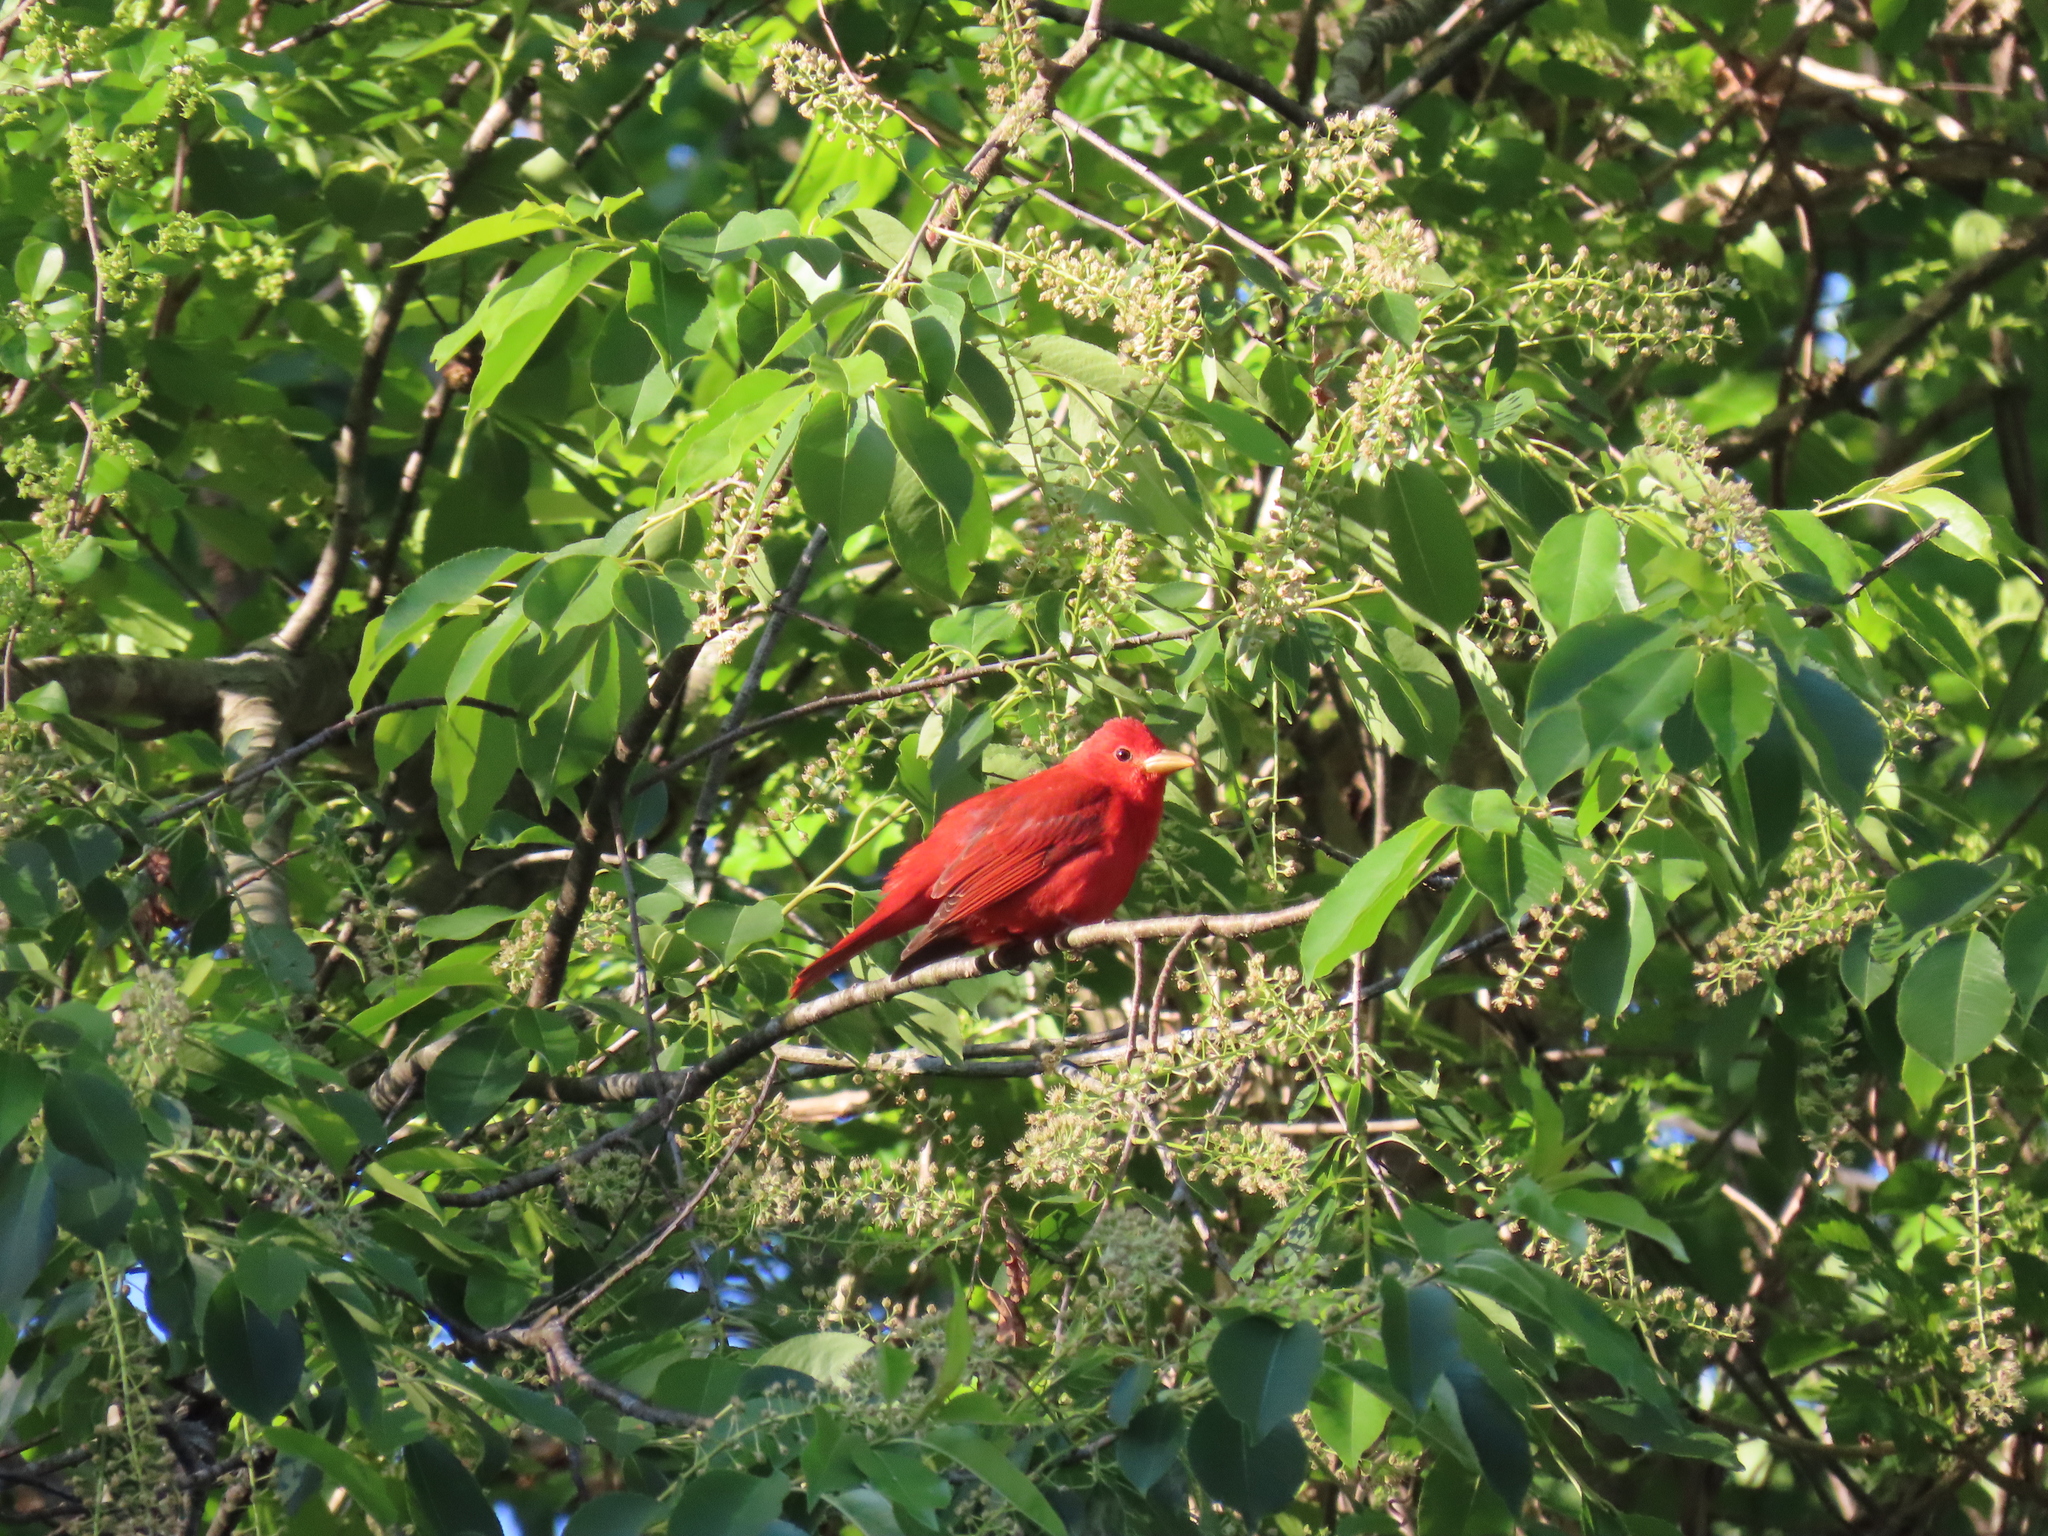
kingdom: Animalia
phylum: Chordata
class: Aves
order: Passeriformes
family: Cardinalidae
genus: Piranga
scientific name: Piranga rubra
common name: Summer tanager
